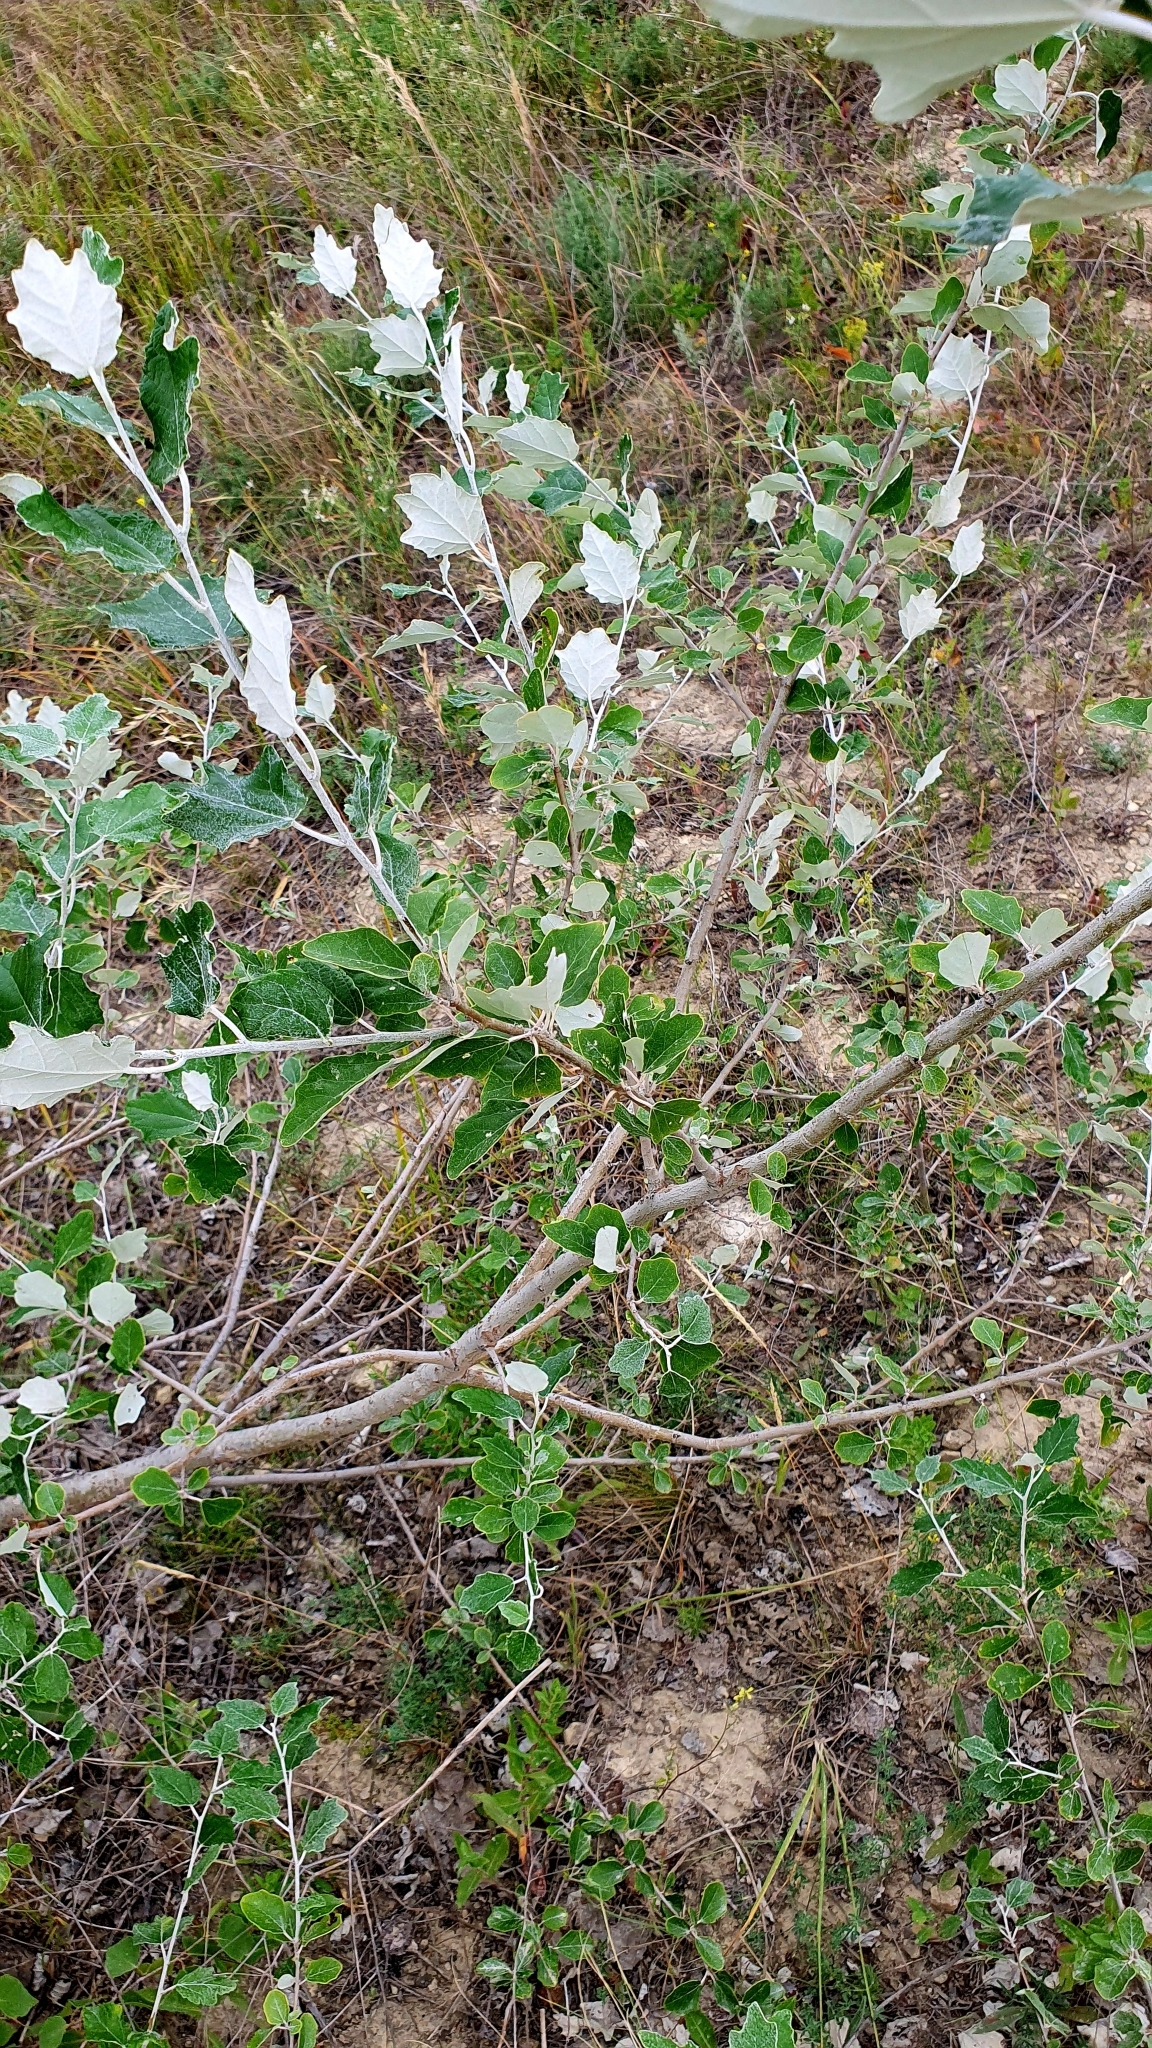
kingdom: Plantae
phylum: Tracheophyta
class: Magnoliopsida
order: Malpighiales
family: Salicaceae
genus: Populus
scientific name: Populus alba
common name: White poplar
